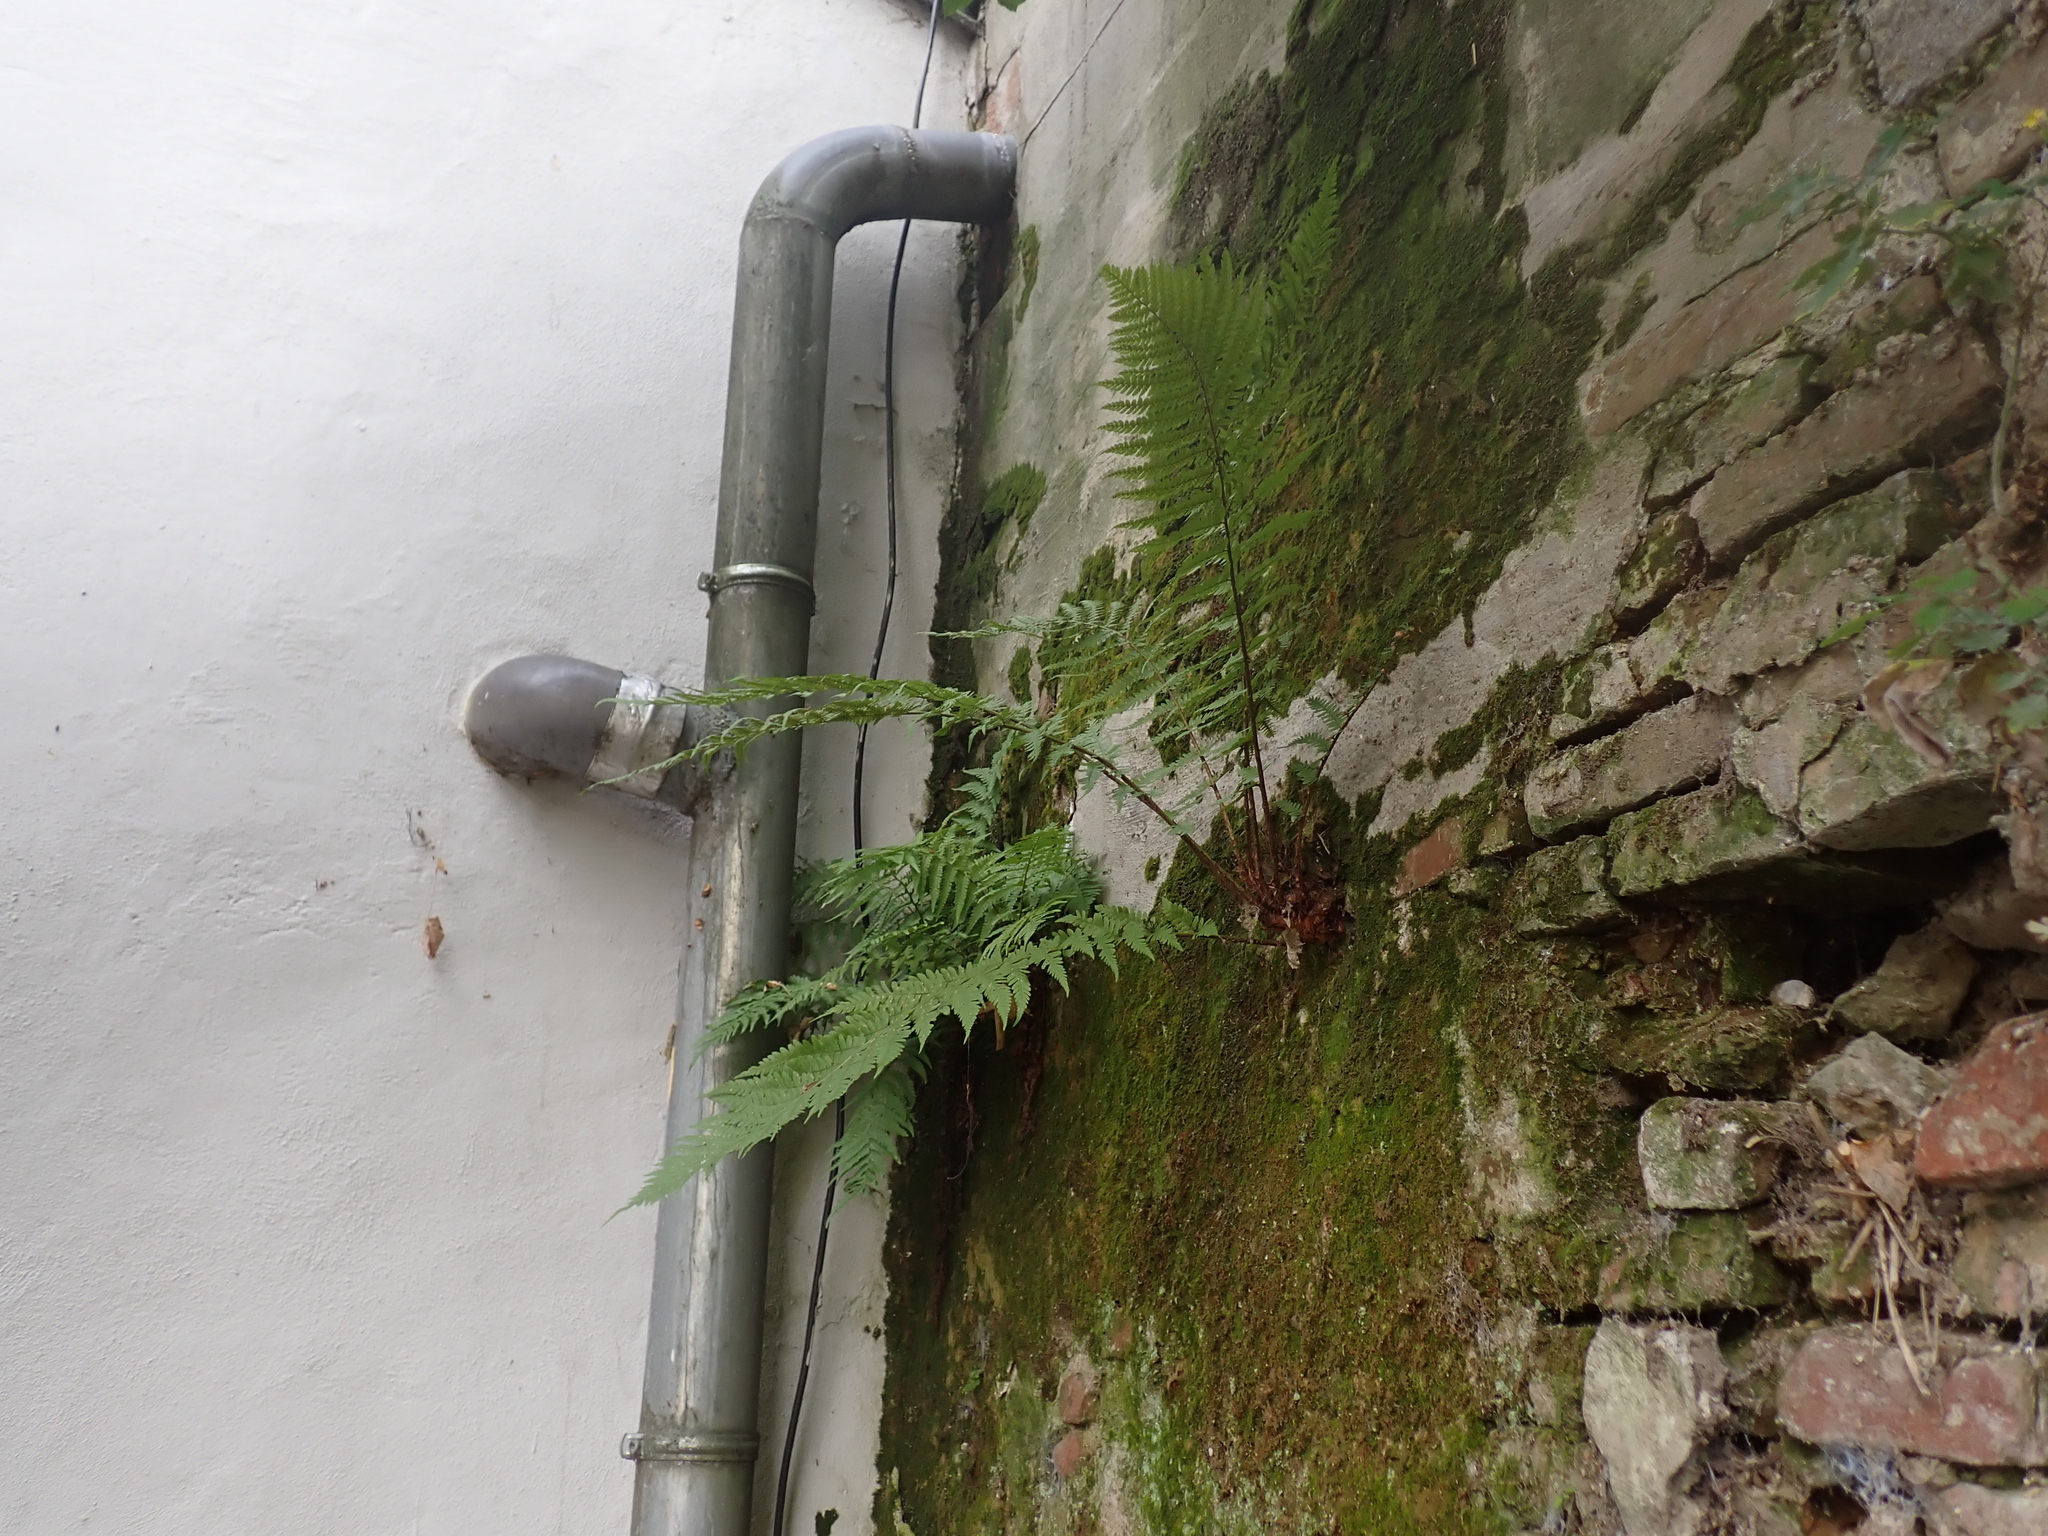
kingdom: Plantae
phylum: Tracheophyta
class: Polypodiopsida
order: Polypodiales
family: Dryopteridaceae
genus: Dryopteris
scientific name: Dryopteris filix-mas
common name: Male fern
